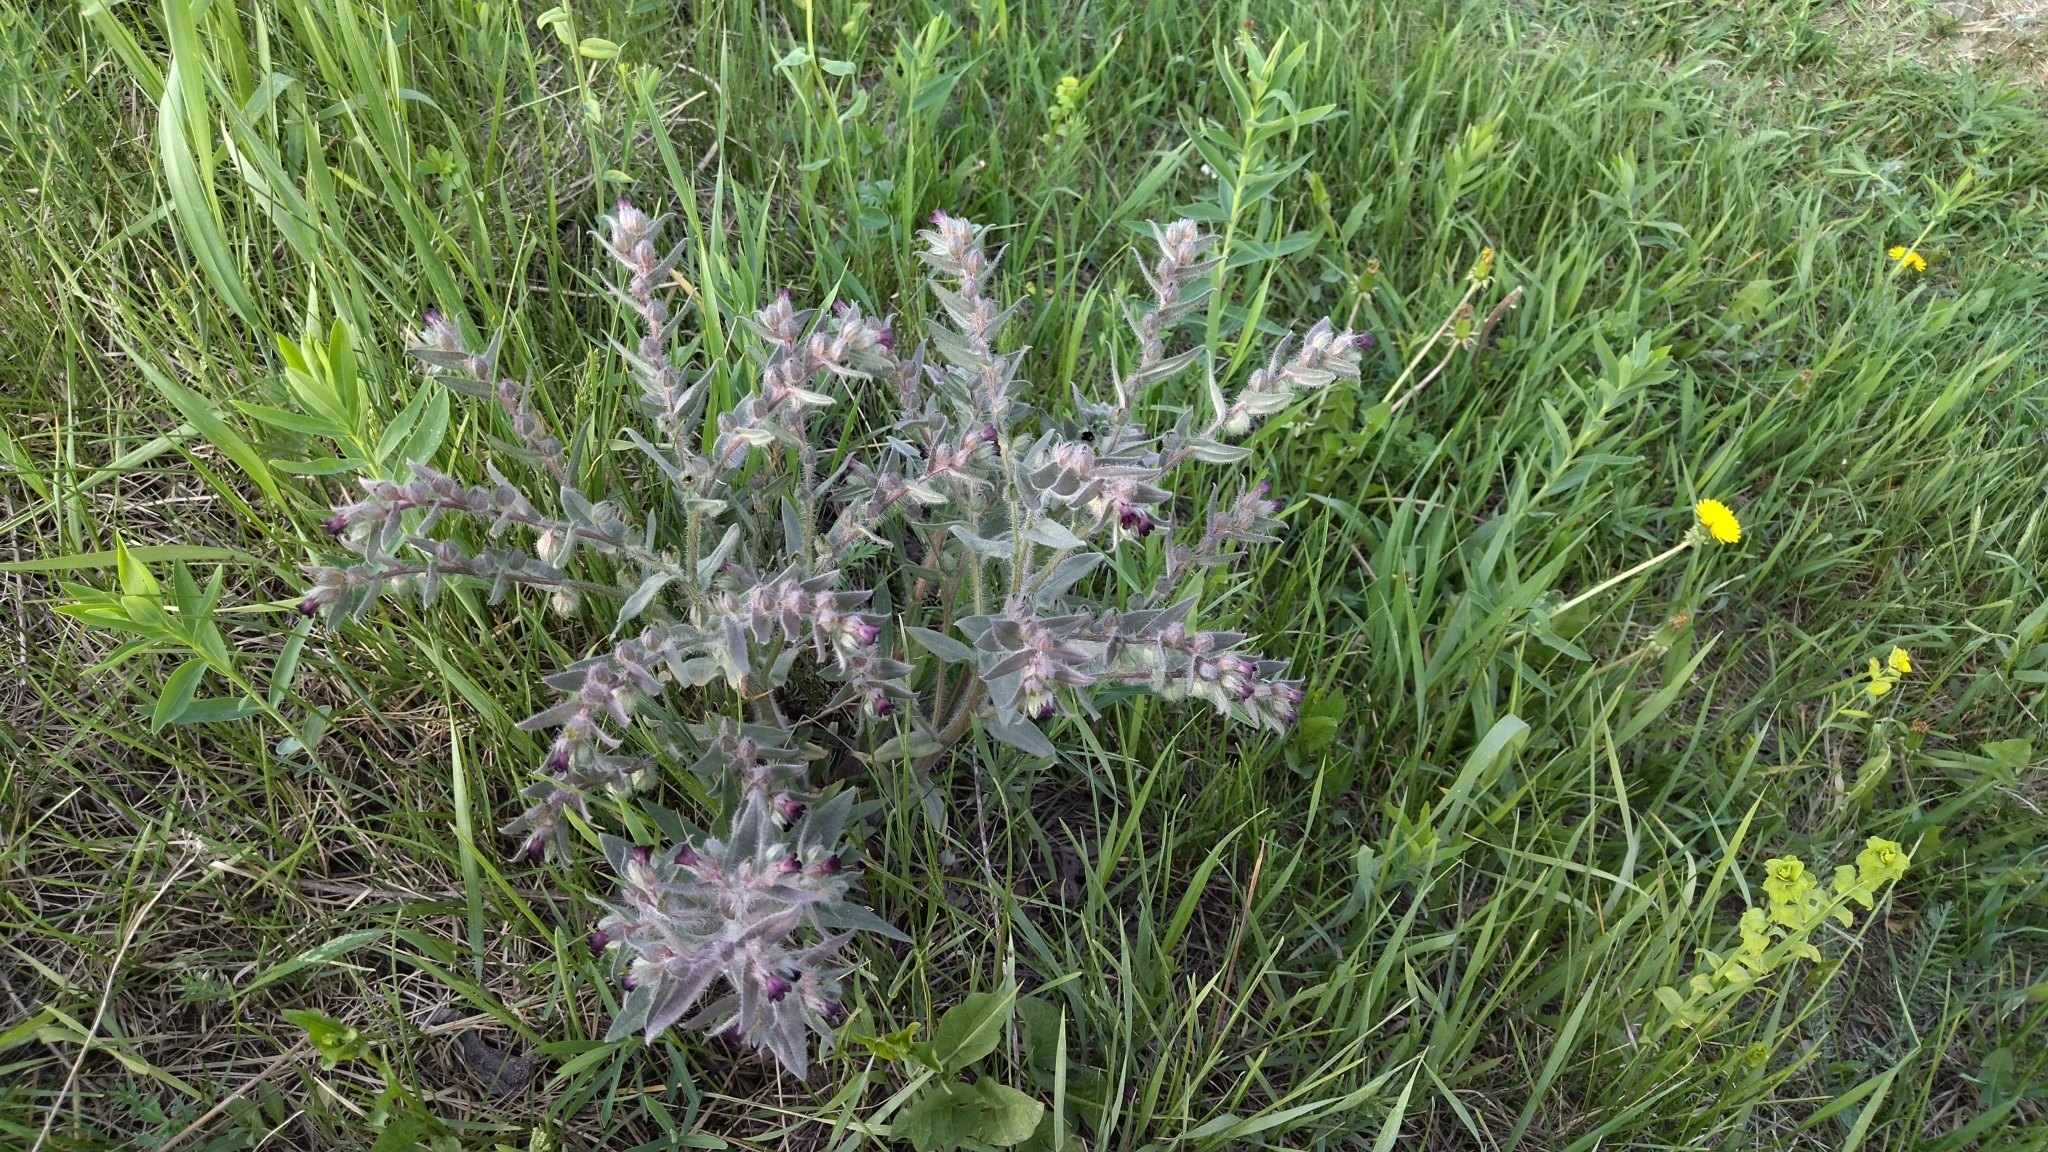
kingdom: Plantae
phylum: Tracheophyta
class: Magnoliopsida
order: Boraginales
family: Boraginaceae
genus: Nonea
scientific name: Nonea pulla
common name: Brown nonea
